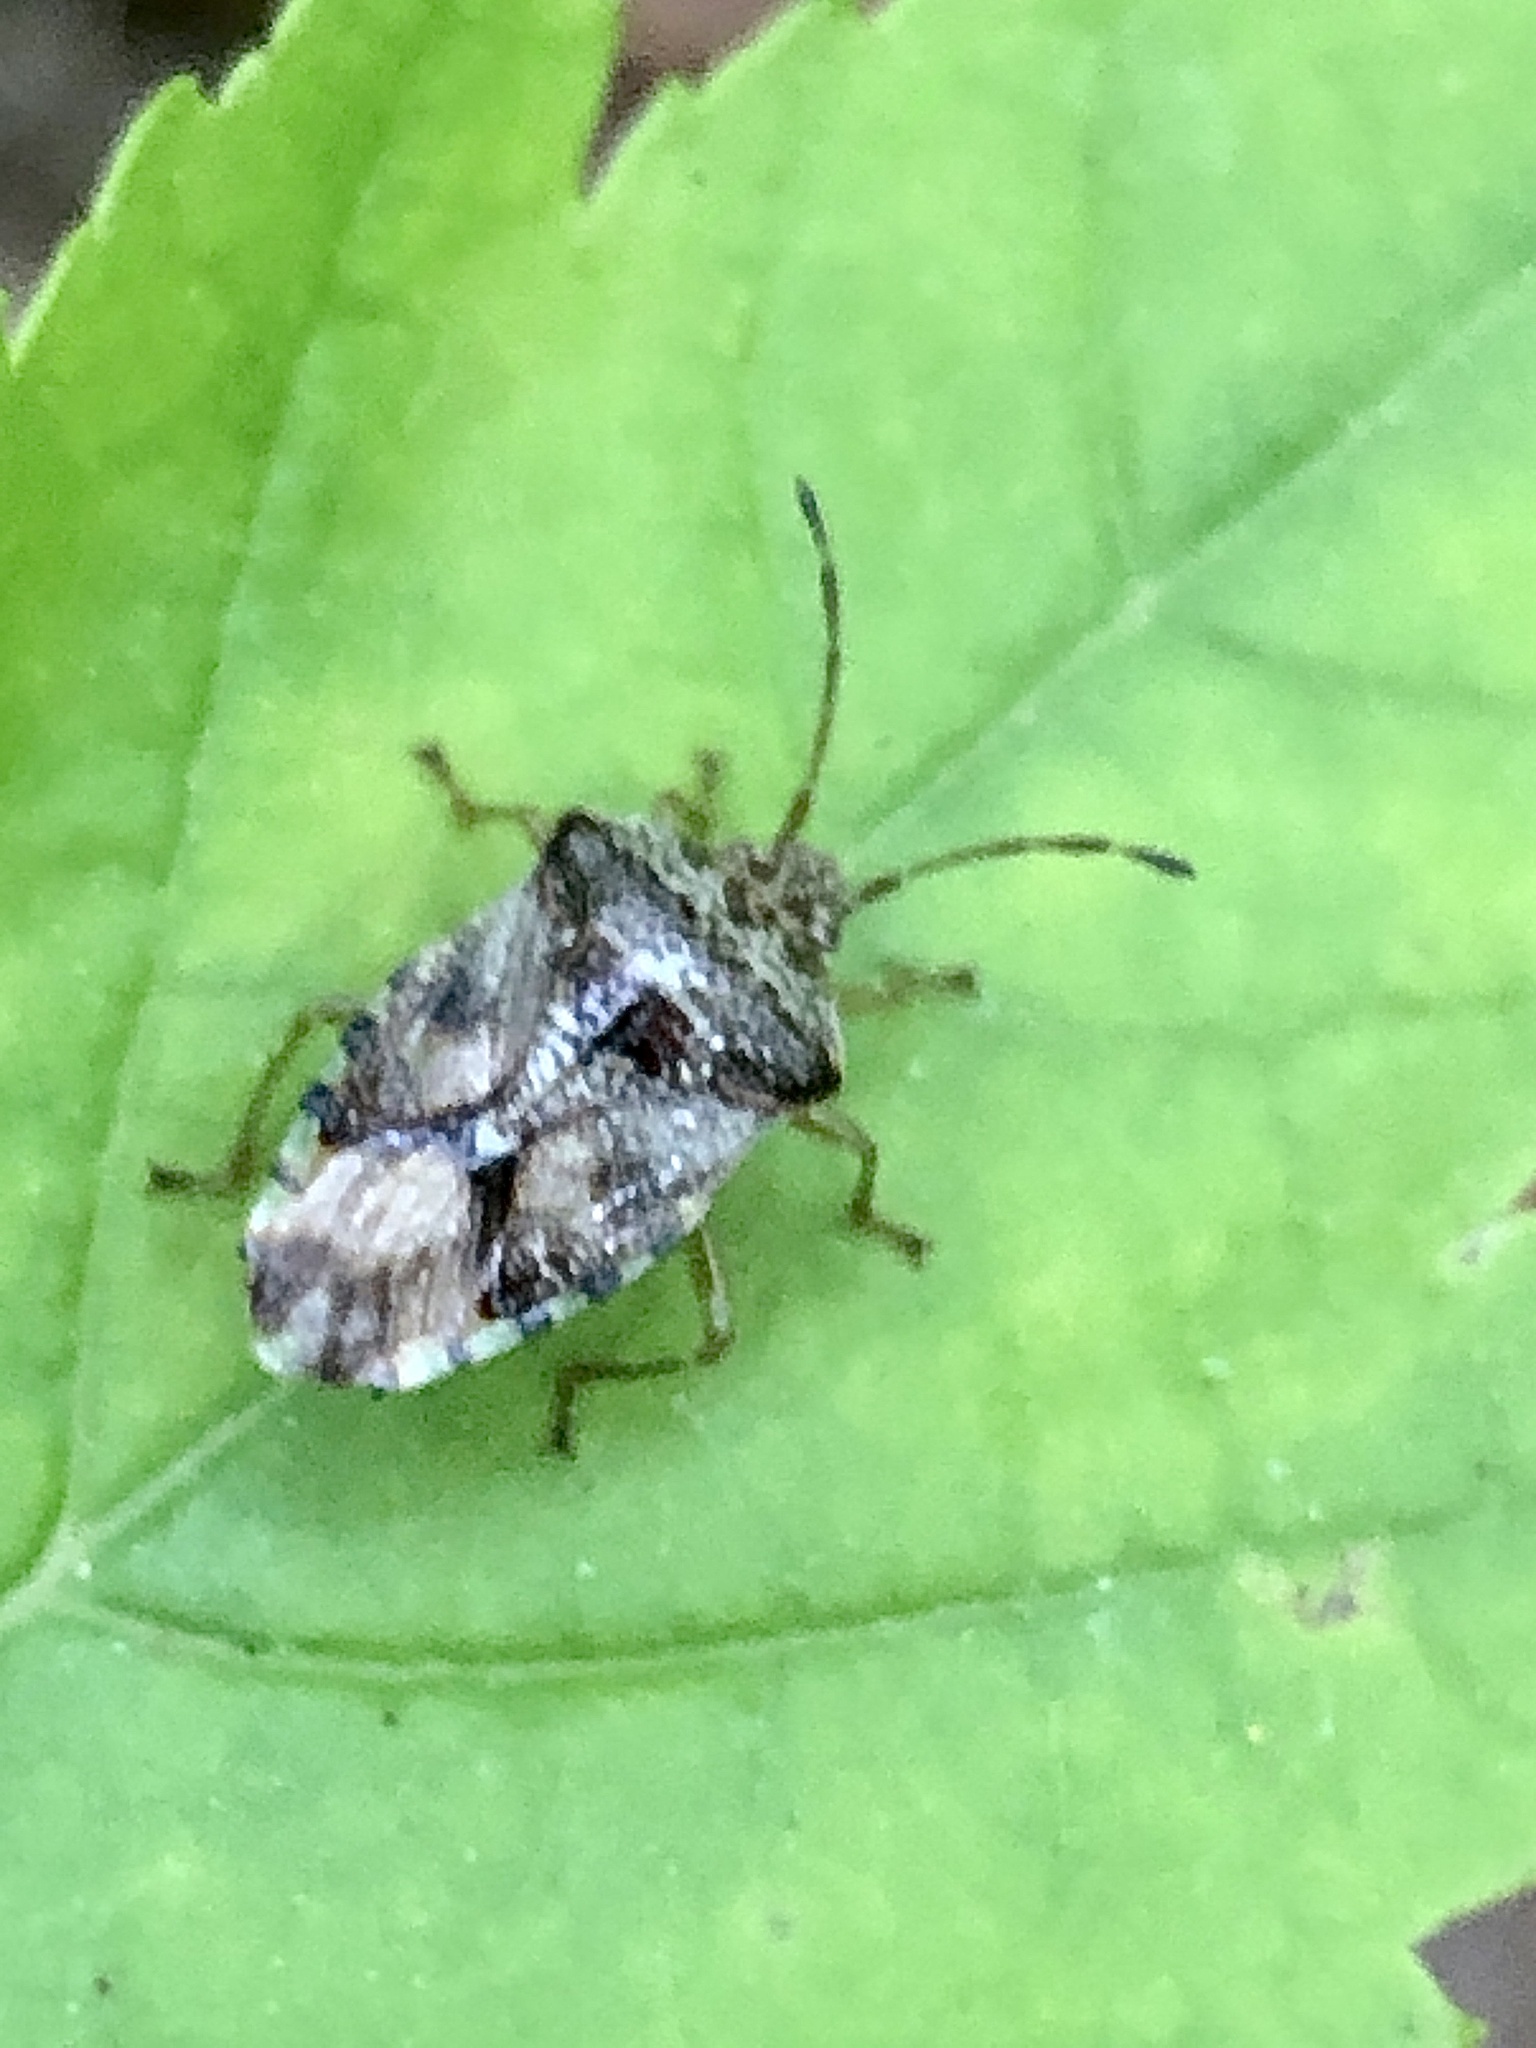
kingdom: Animalia
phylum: Arthropoda
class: Insecta
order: Hemiptera
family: Acanthosomatidae
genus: Elasmucha
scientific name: Elasmucha lateralis
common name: Shield bug
